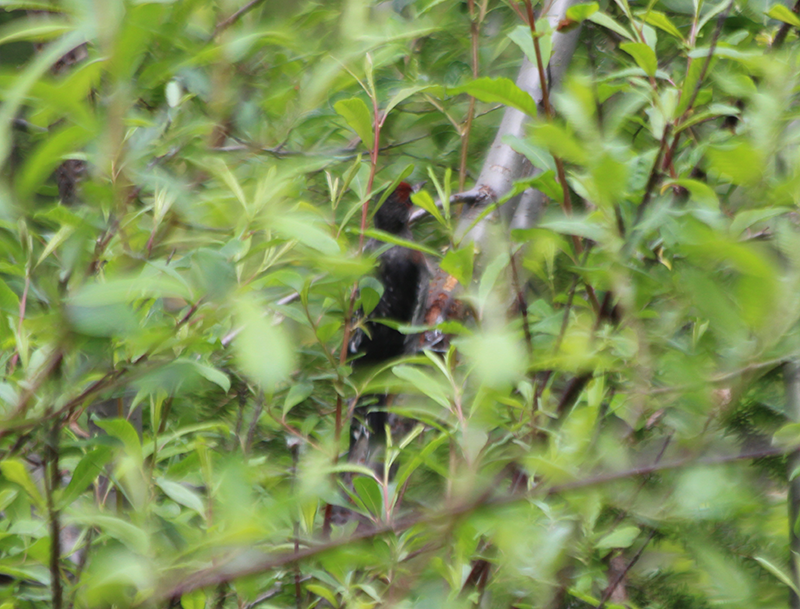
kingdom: Animalia
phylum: Chordata
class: Aves
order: Piciformes
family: Picidae
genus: Sphyrapicus
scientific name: Sphyrapicus ruber
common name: Red-breasted sapsucker
